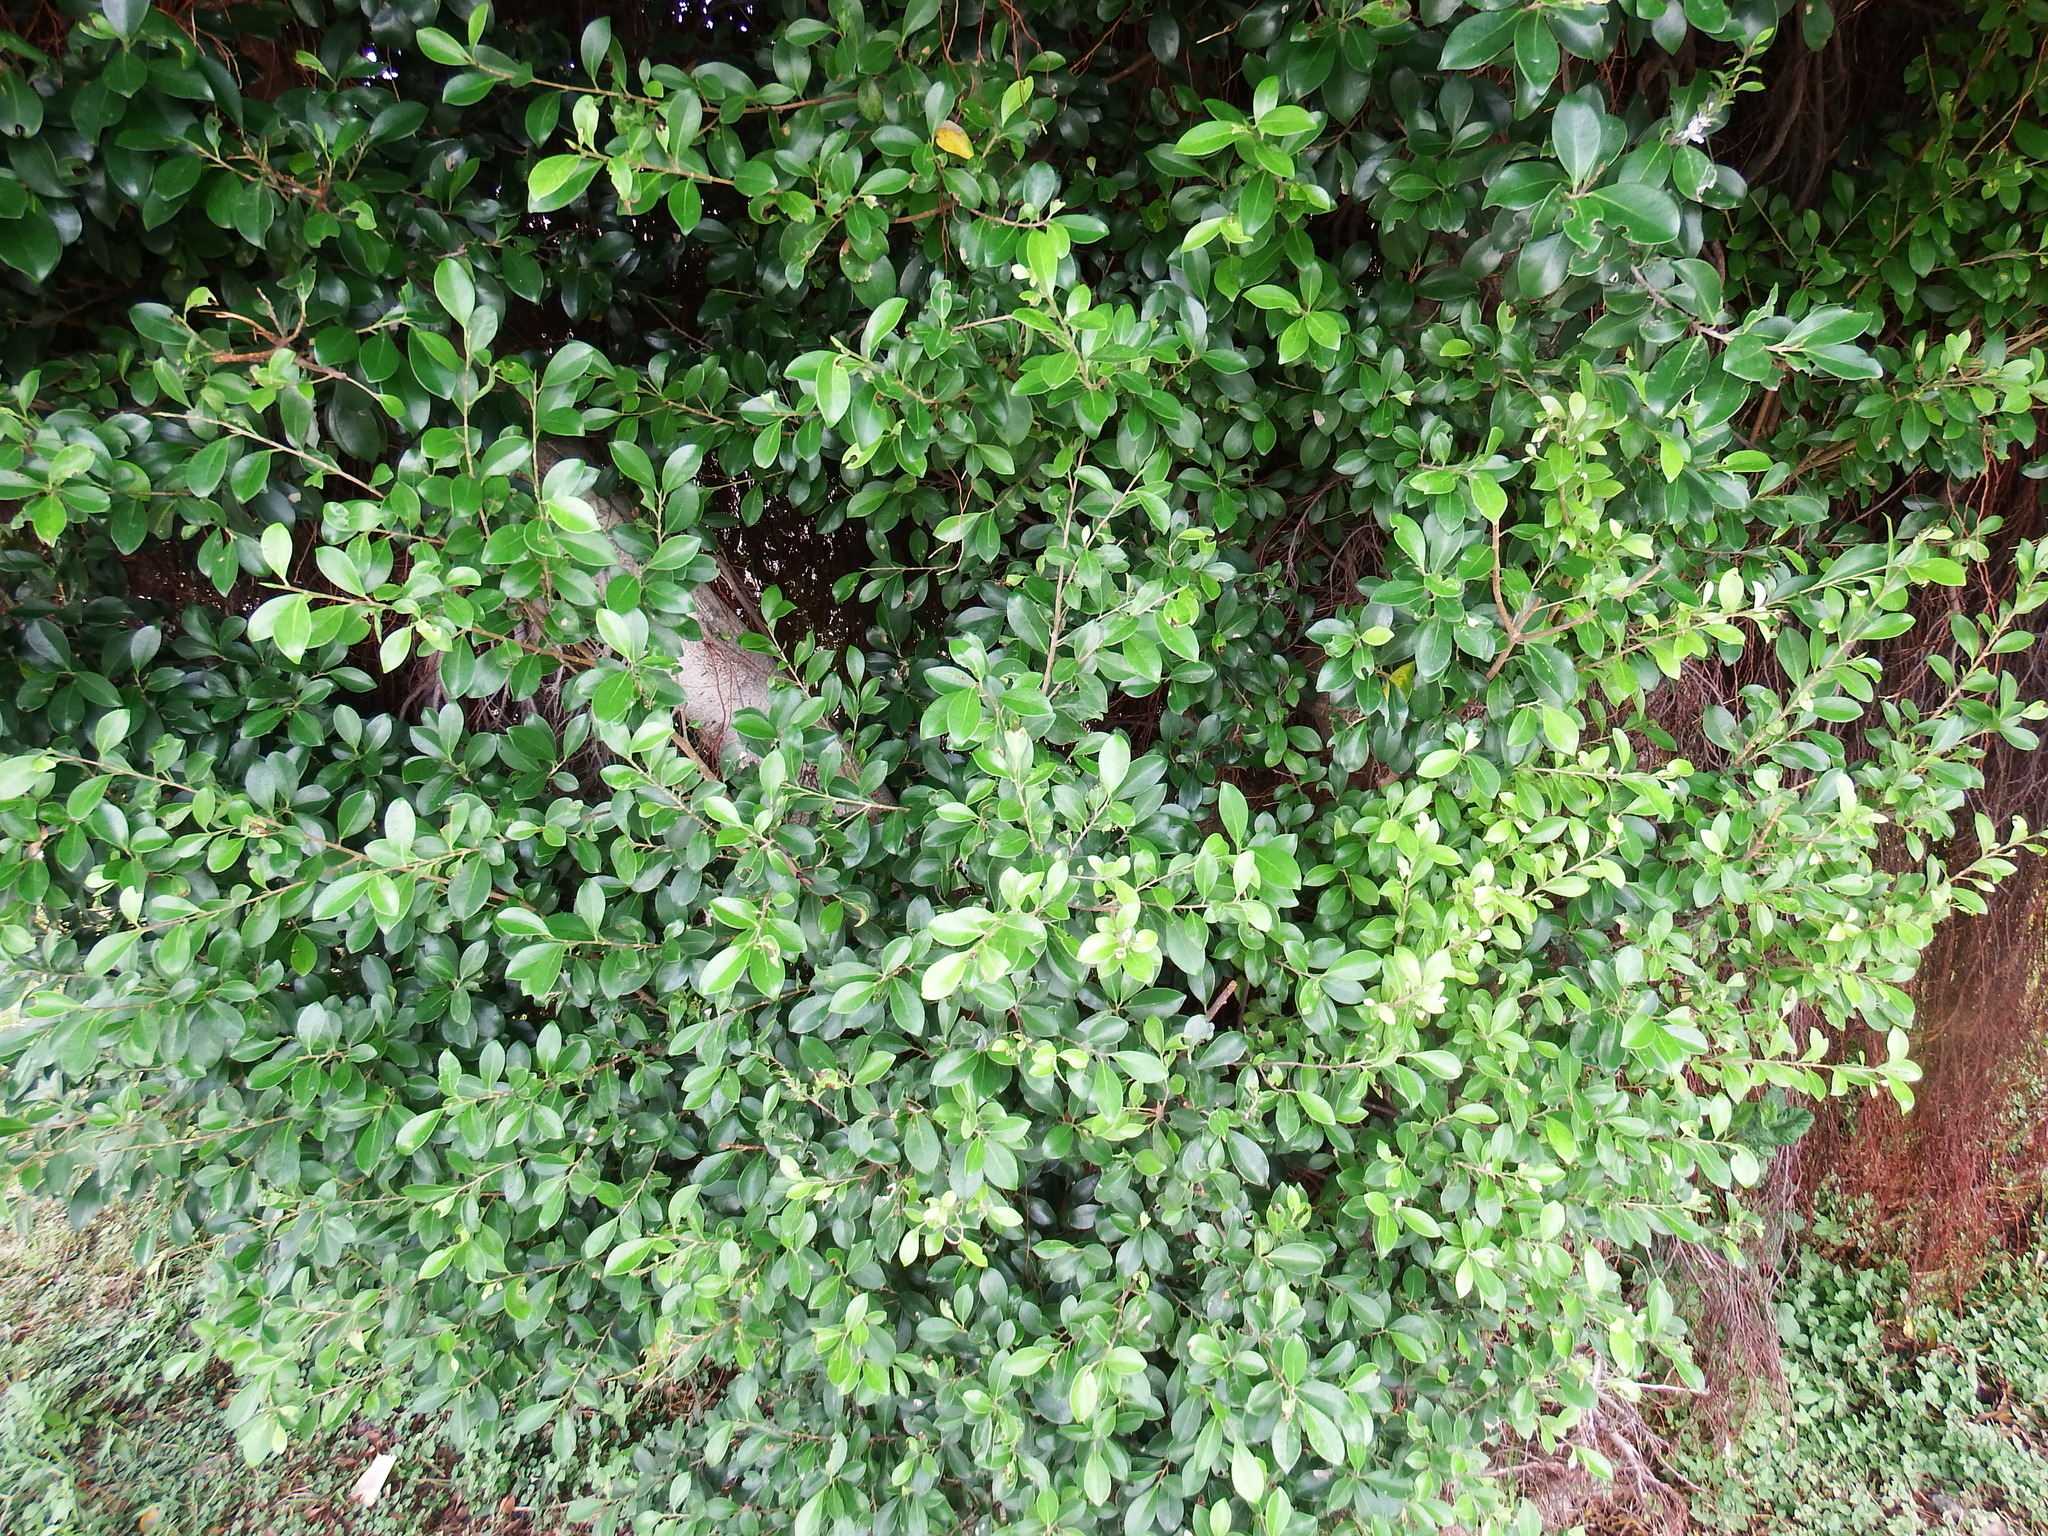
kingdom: Plantae
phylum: Tracheophyta
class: Magnoliopsida
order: Rosales
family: Moraceae
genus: Ficus
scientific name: Ficus microcarpa
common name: Chinese banyan
